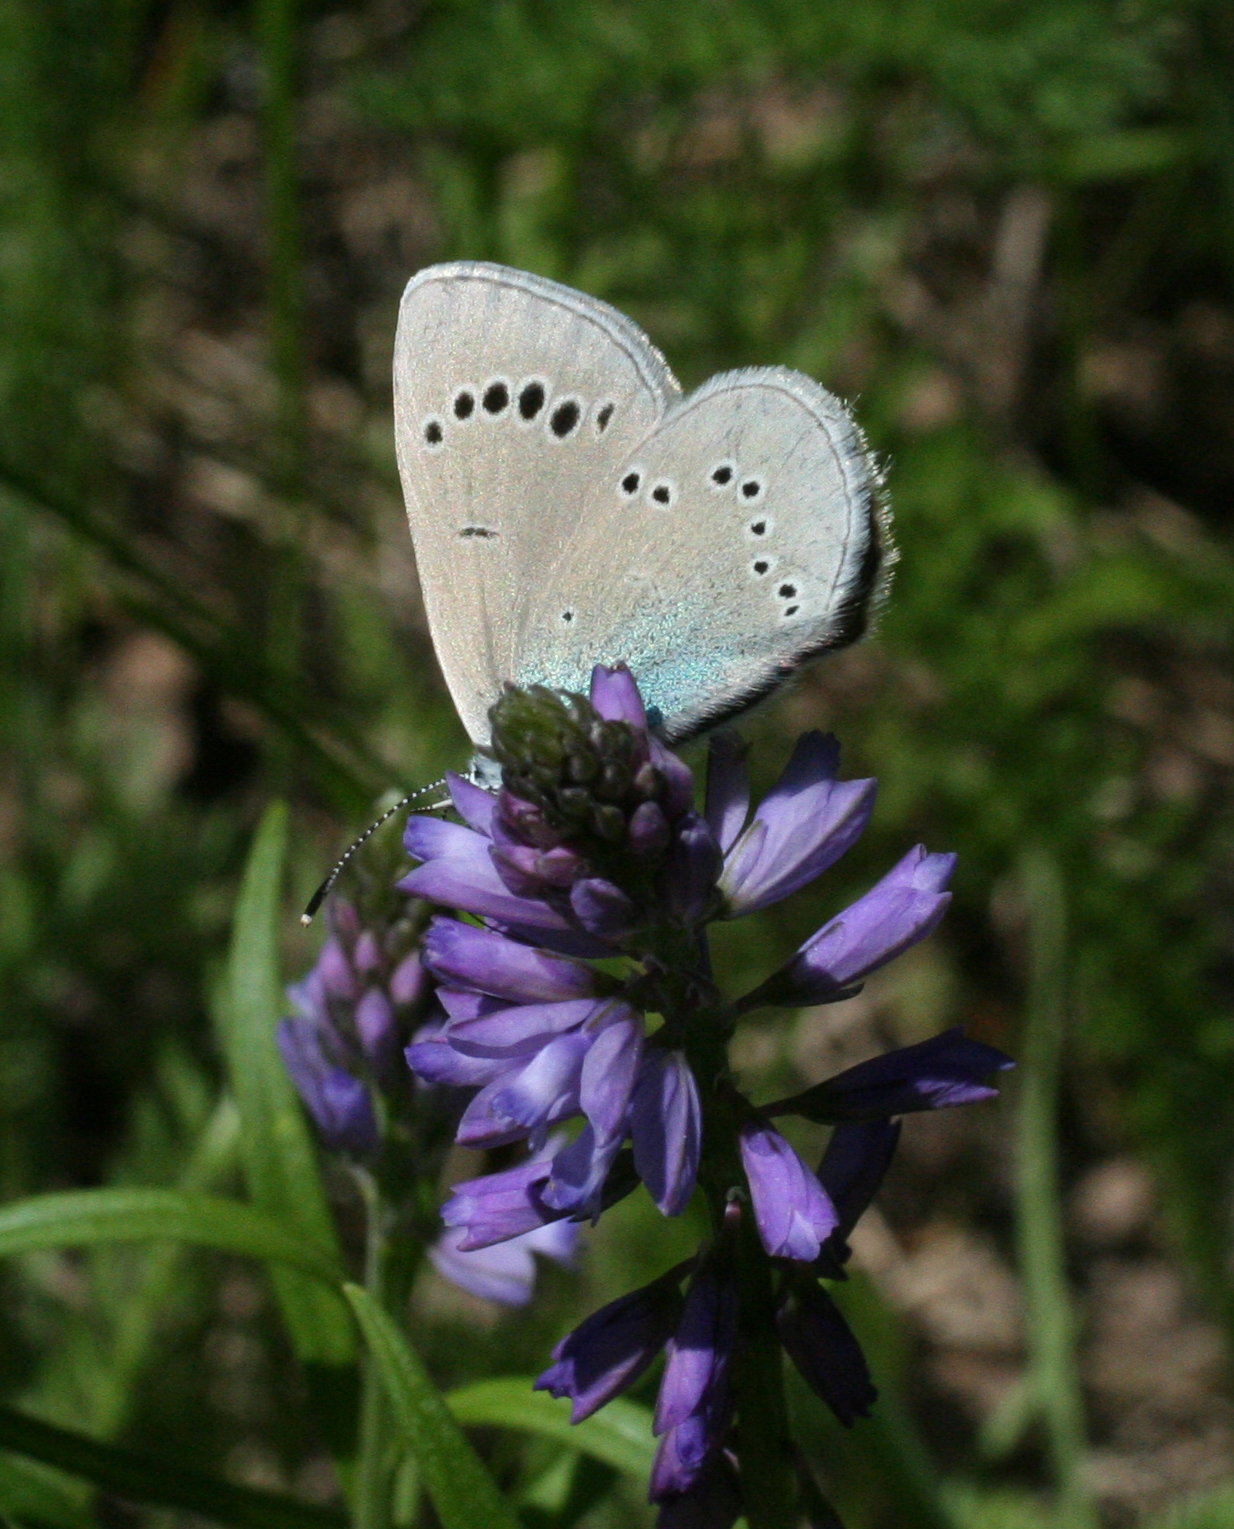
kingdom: Animalia
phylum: Arthropoda
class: Insecta
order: Lepidoptera
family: Lycaenidae
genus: Glaucopsyche
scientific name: Glaucopsyche lycormas
